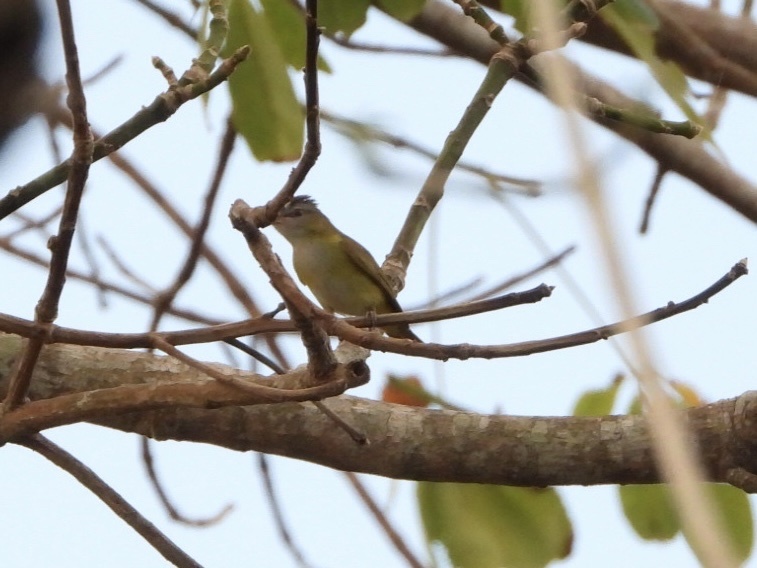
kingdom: Animalia
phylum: Chordata
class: Aves
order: Passeriformes
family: Vireonidae
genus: Vireo
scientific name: Vireo flavoviridis
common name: Yellow-green vireo
